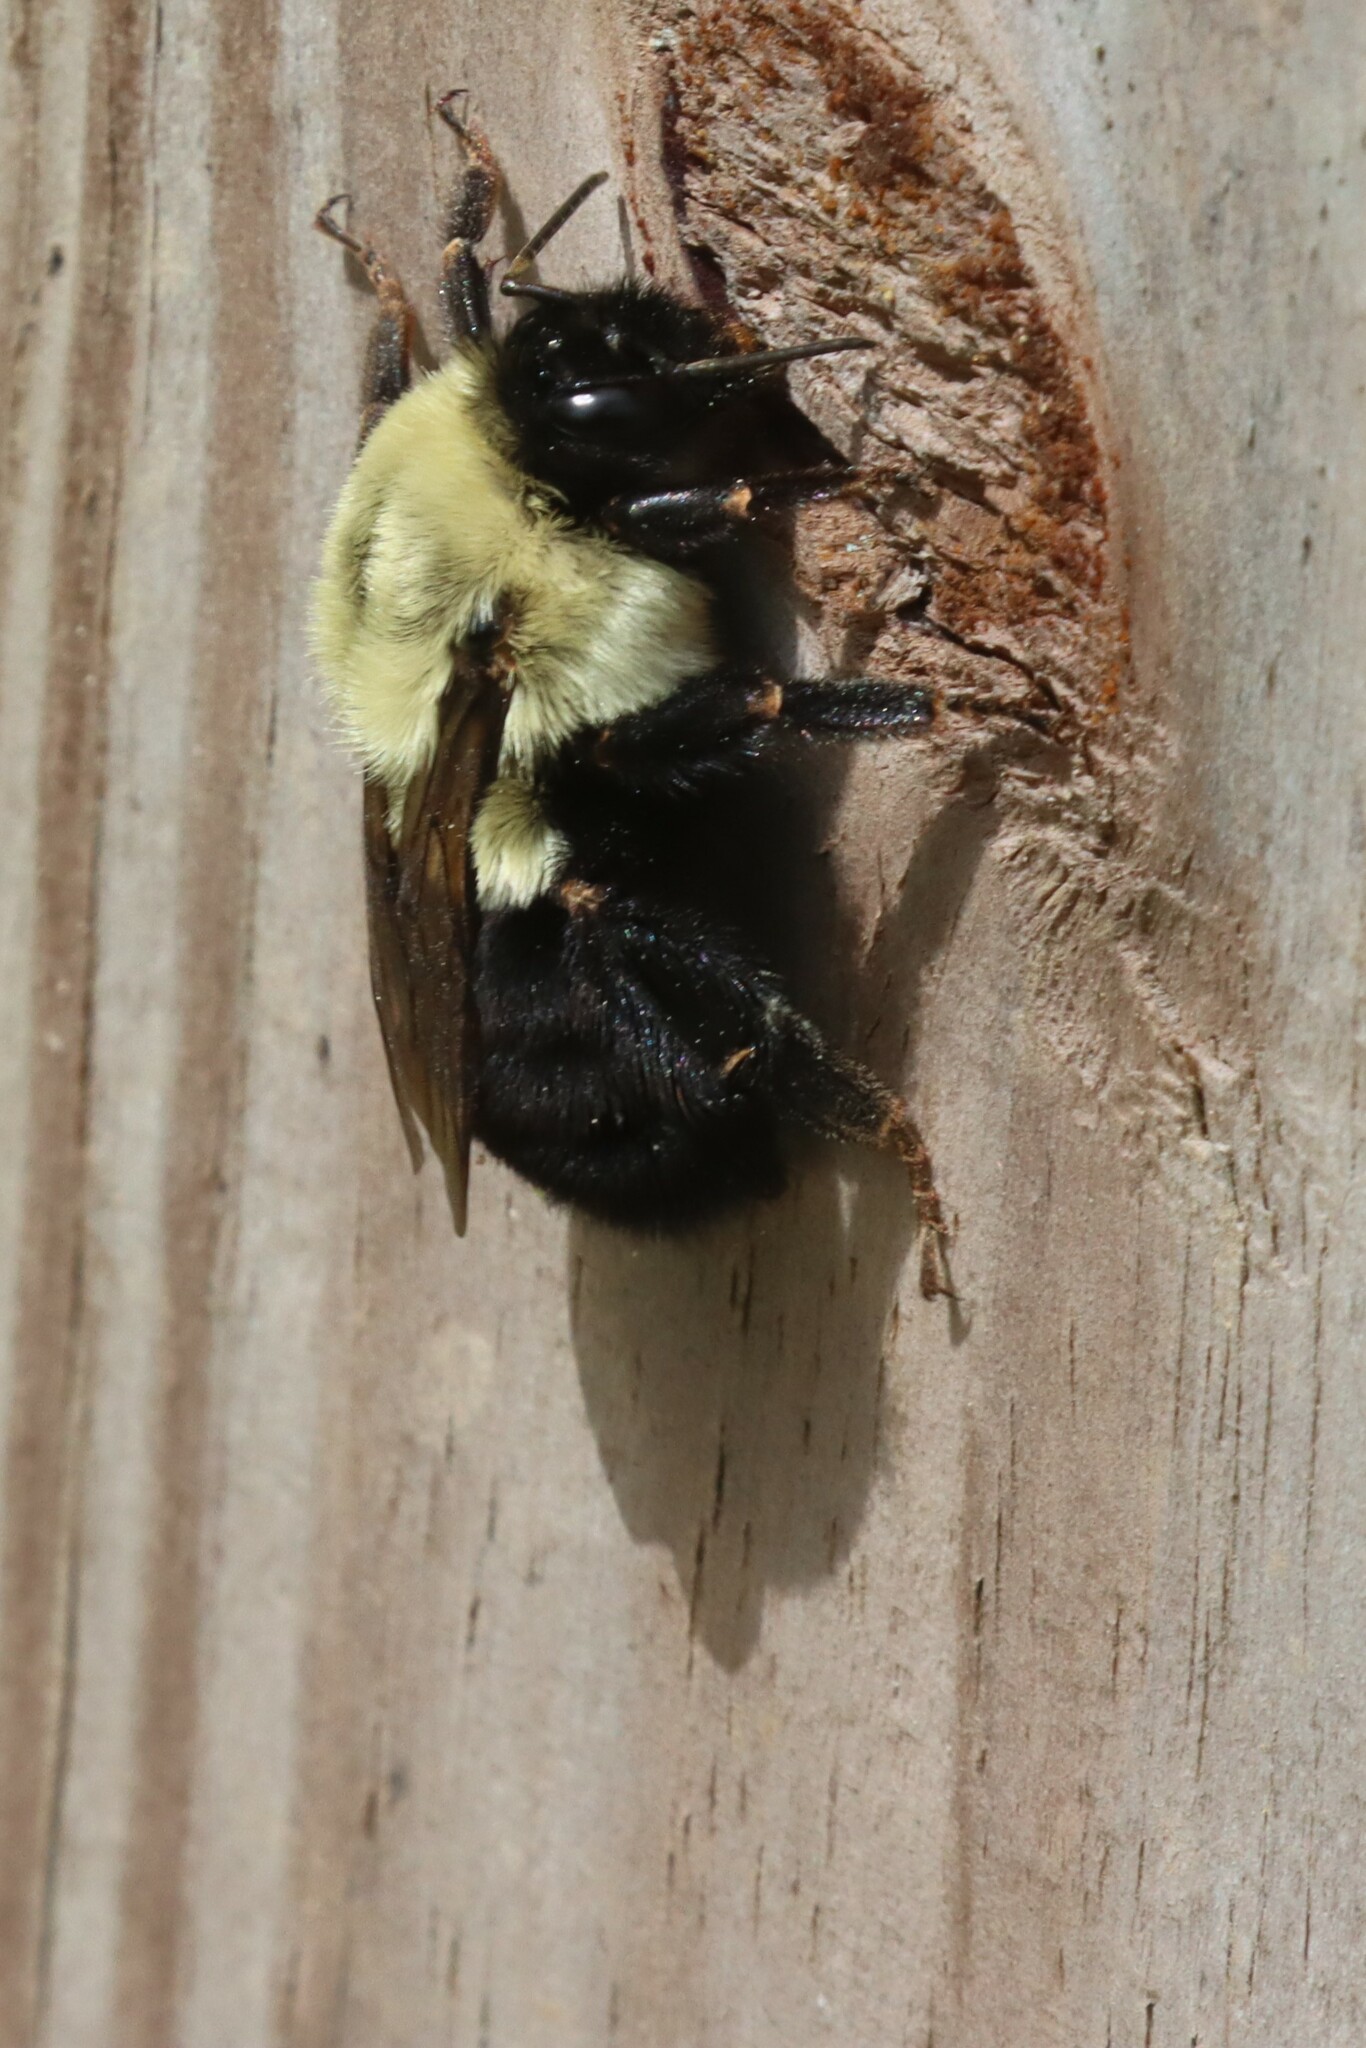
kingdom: Animalia
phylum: Arthropoda
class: Insecta
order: Hymenoptera
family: Apidae
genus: Bombus
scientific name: Bombus impatiens
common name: Common eastern bumble bee
